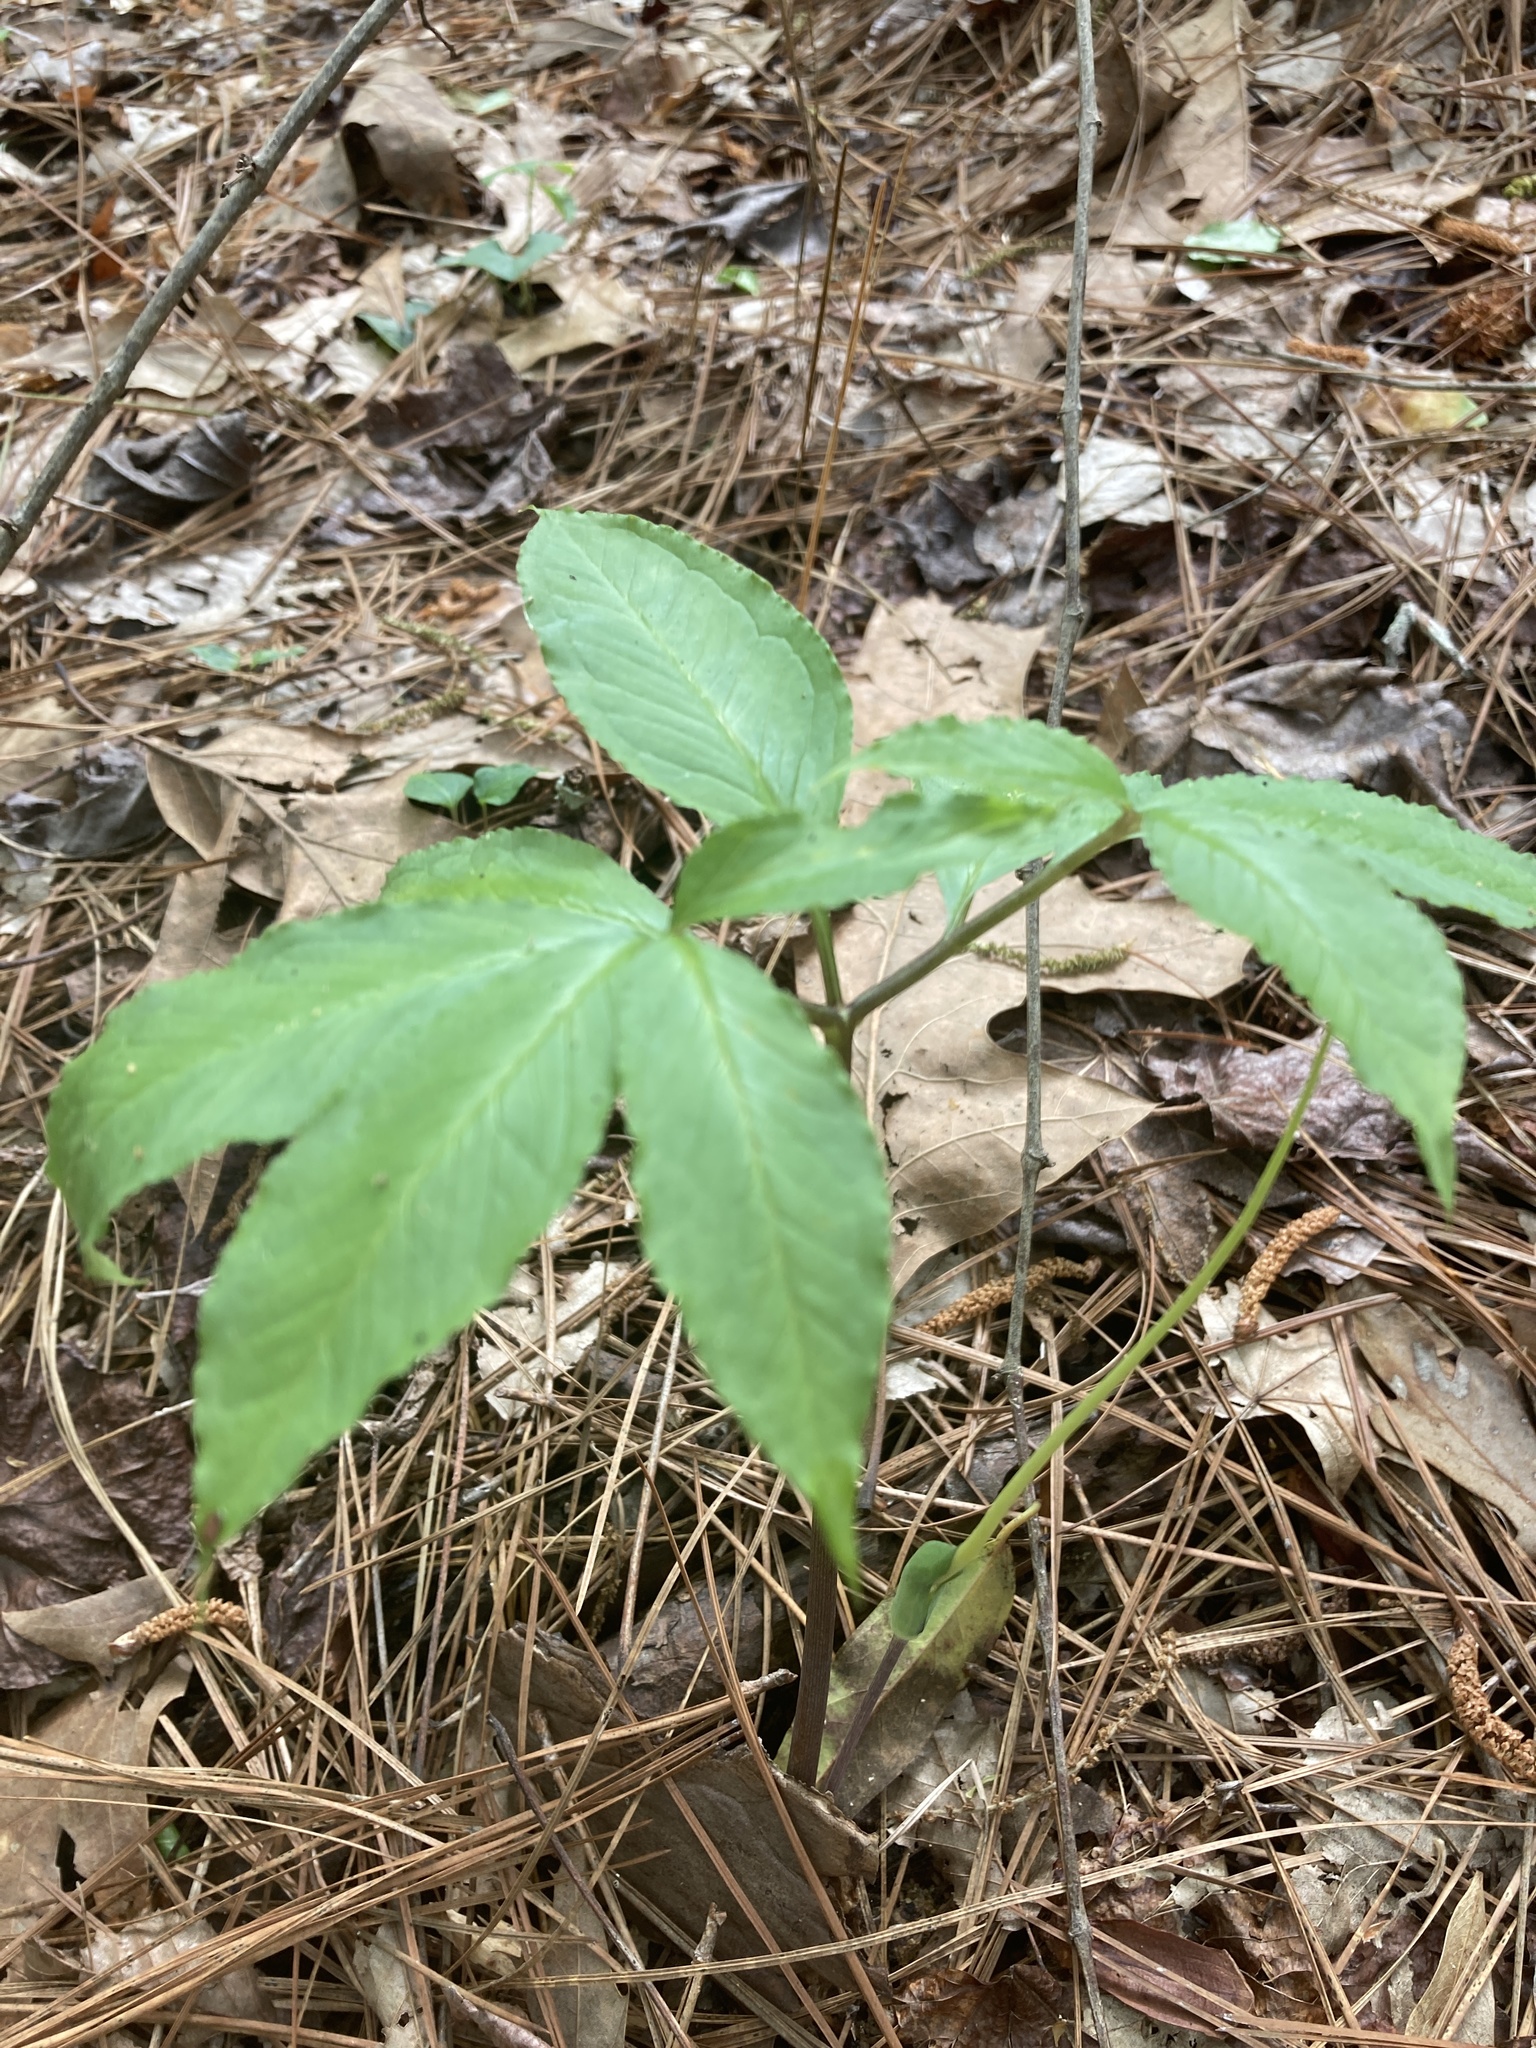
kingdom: Plantae
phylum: Tracheophyta
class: Liliopsida
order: Alismatales
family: Araceae
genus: Arisaema
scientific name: Arisaema dracontium
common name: Dragon-arum
